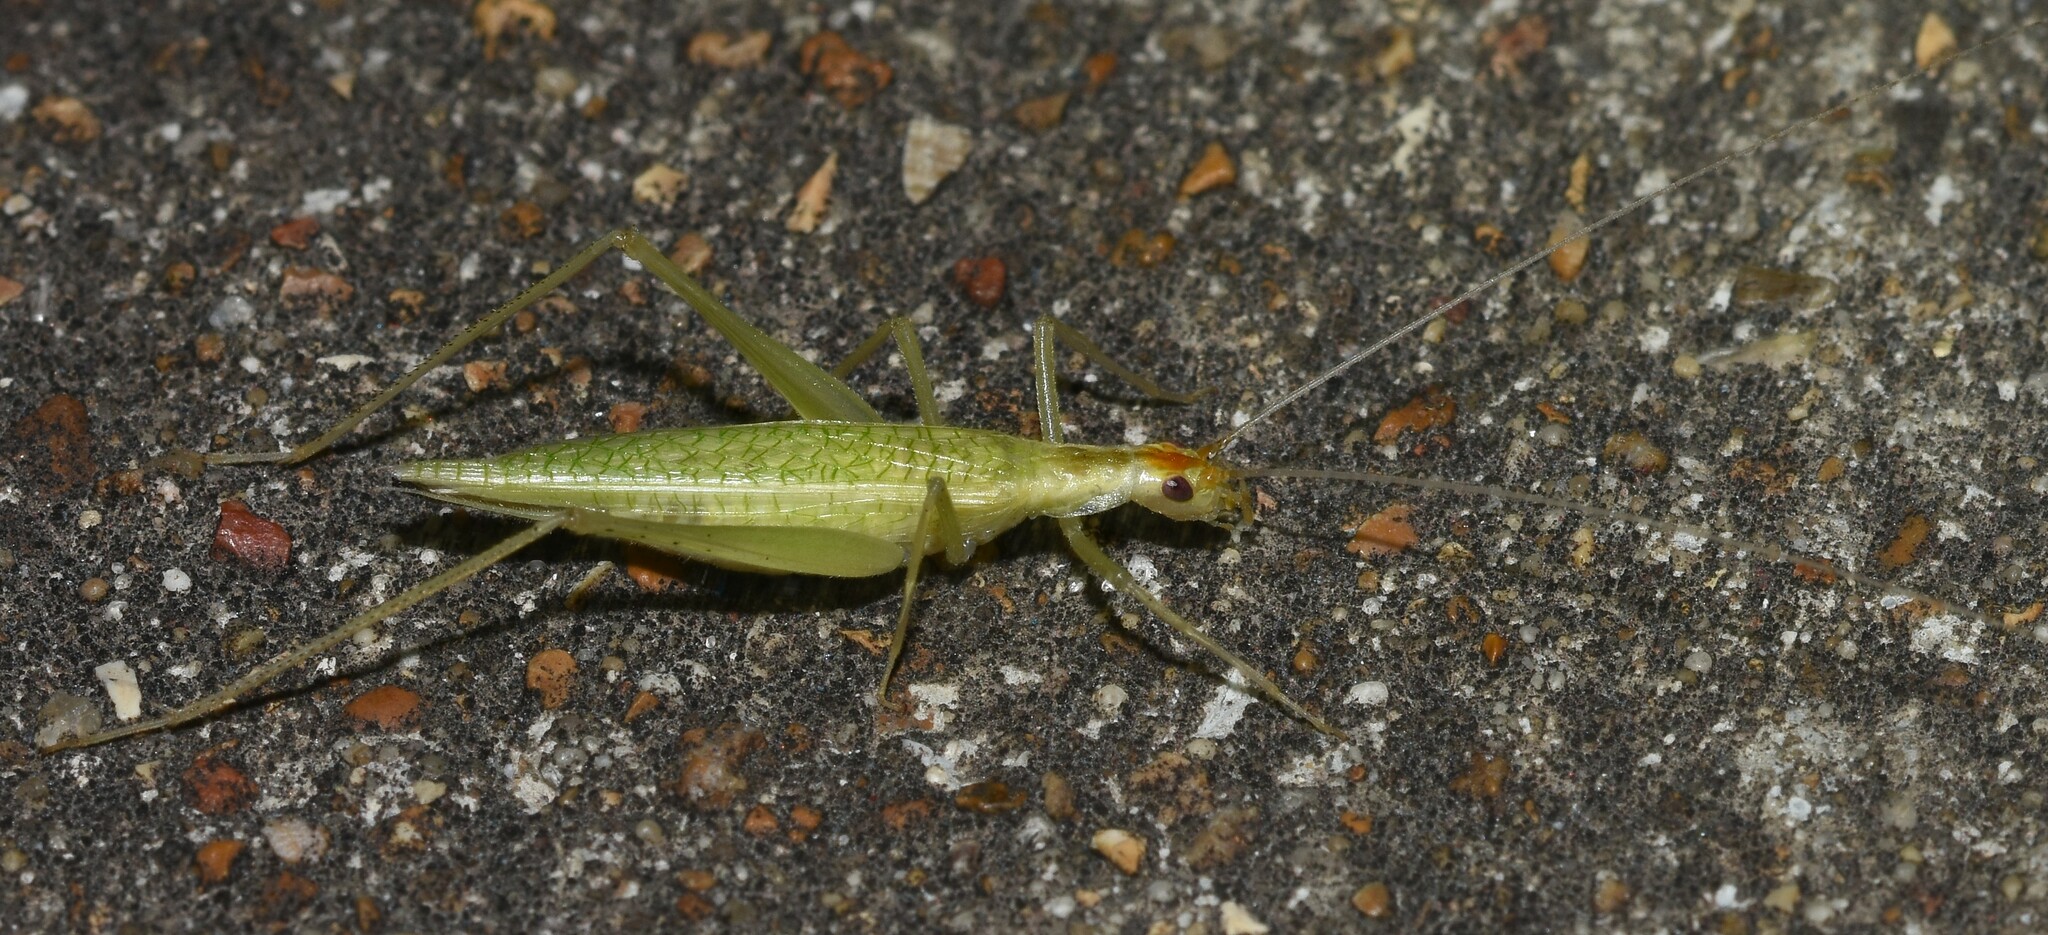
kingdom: Animalia
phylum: Arthropoda
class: Insecta
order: Orthoptera
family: Gryllidae
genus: Oecanthus
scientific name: Oecanthus niveus
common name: Narrow-winged tree cricket
